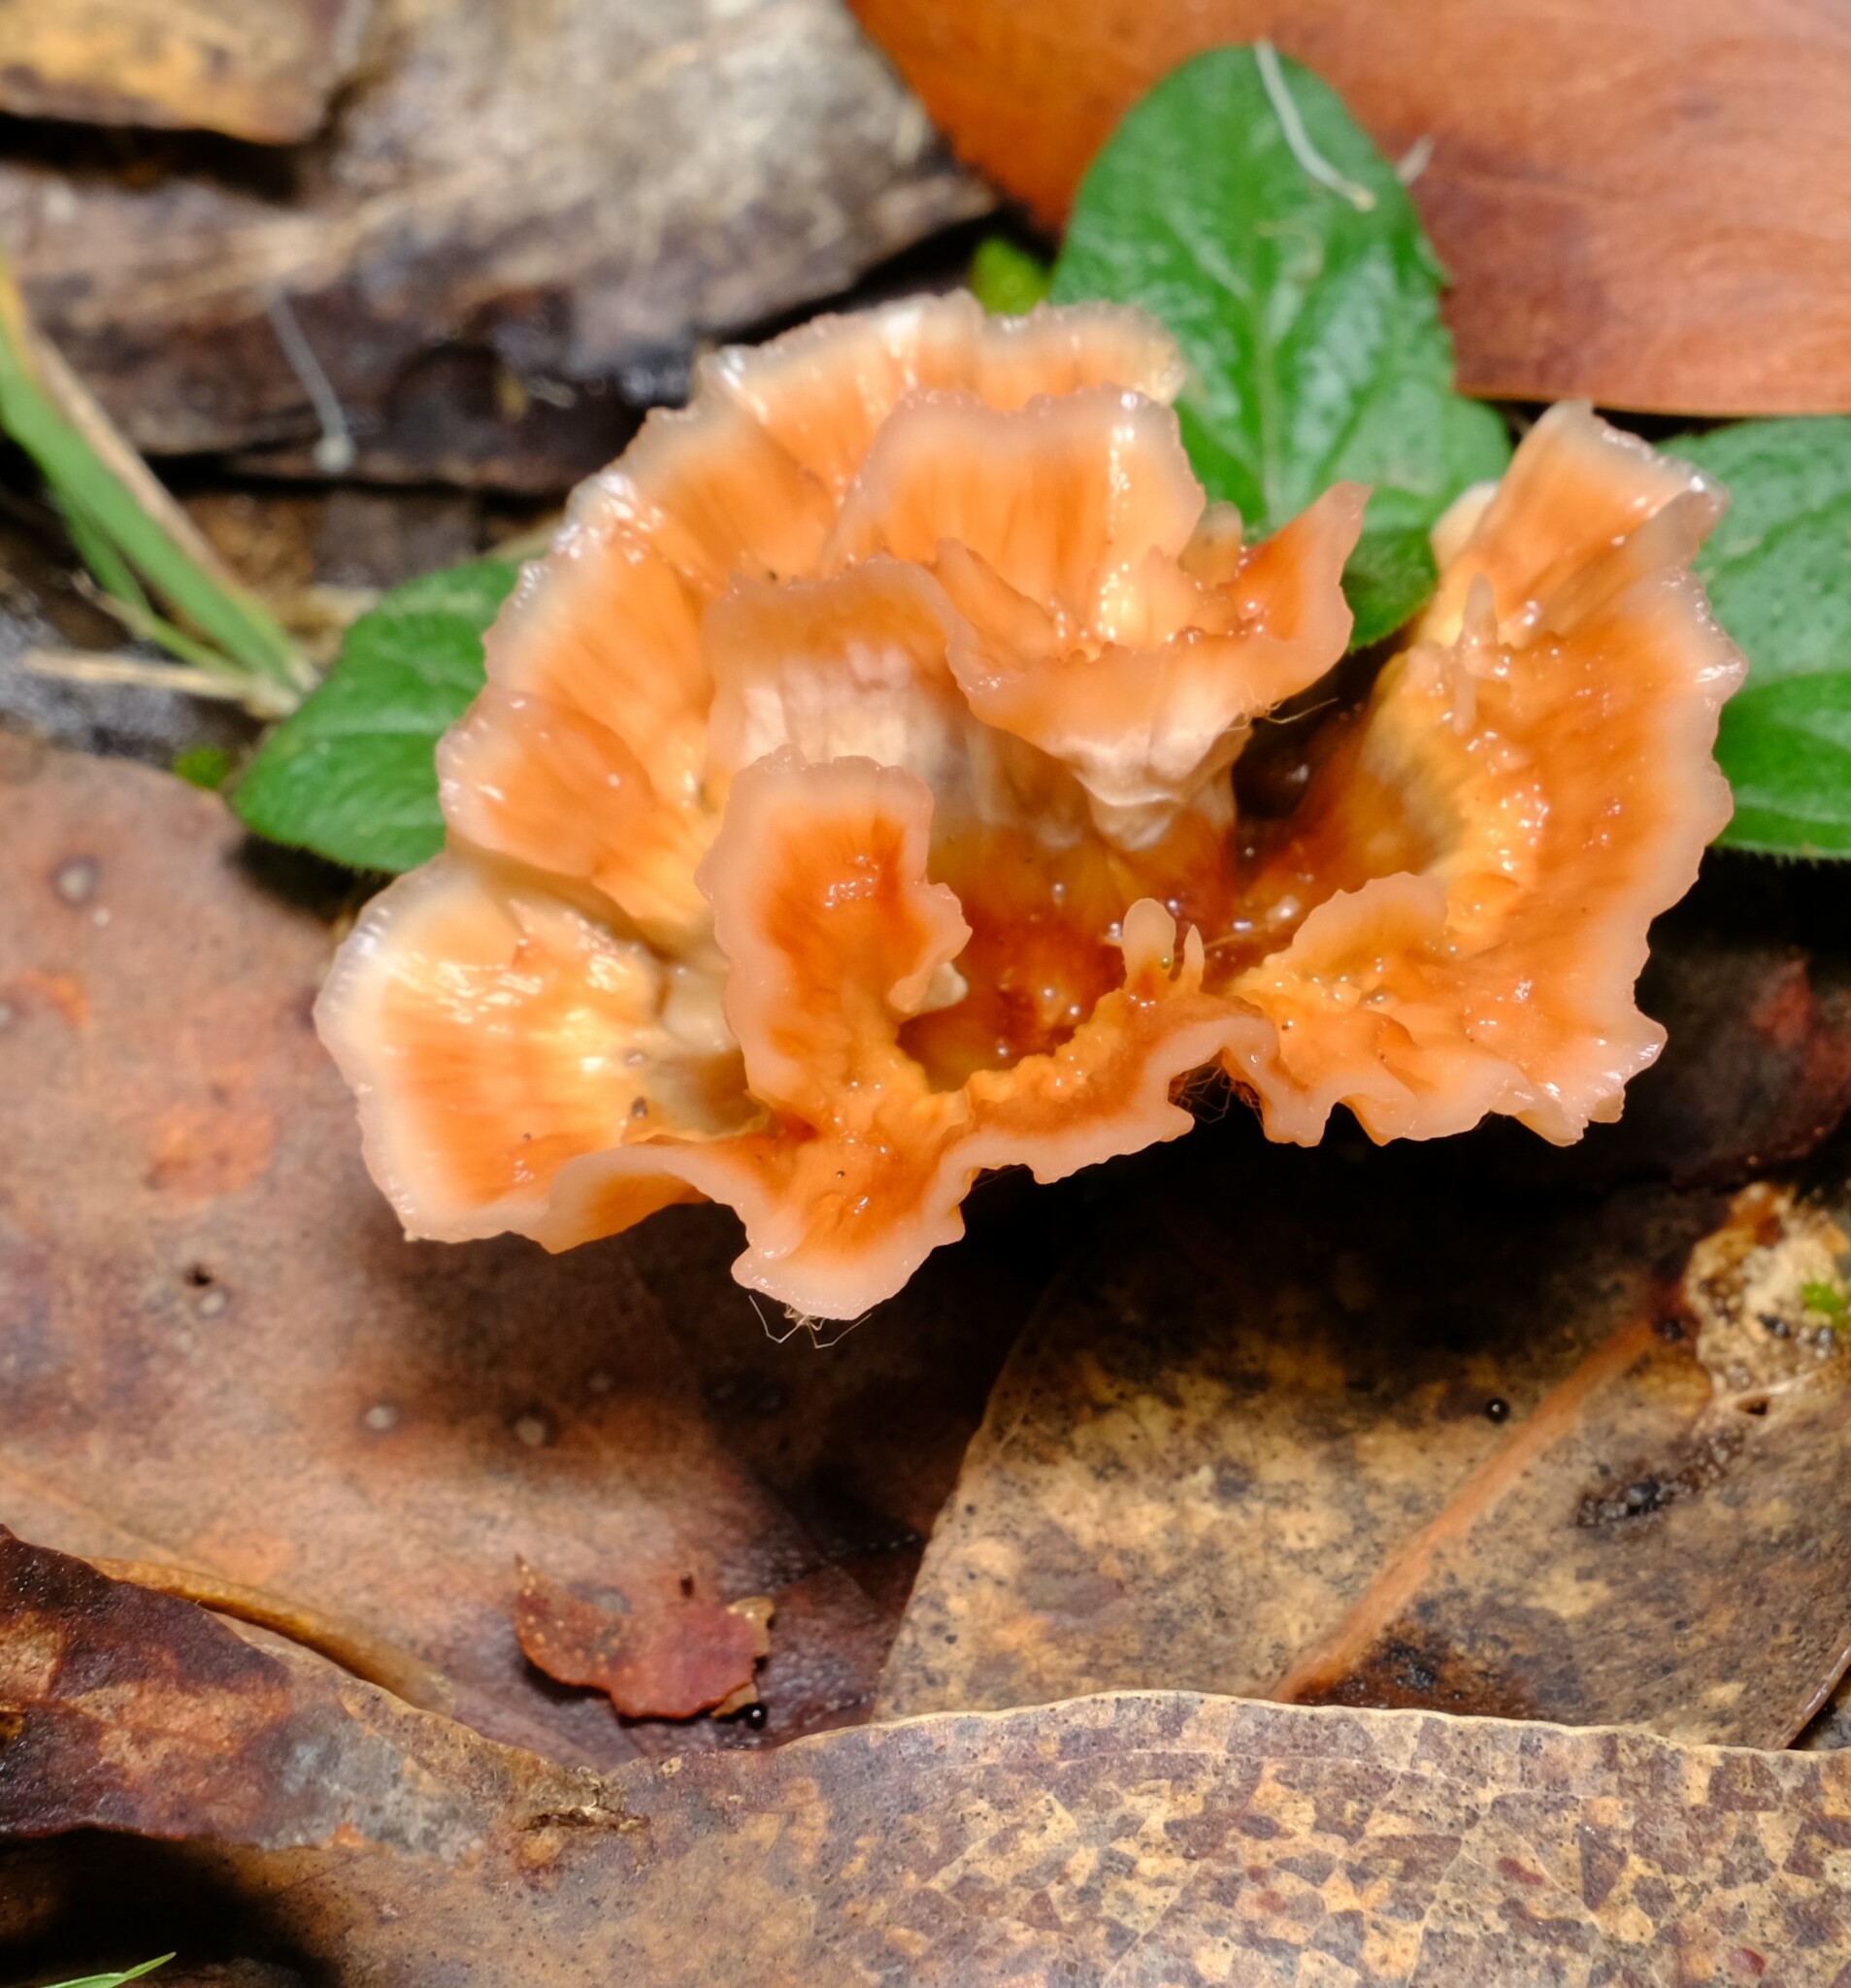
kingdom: Fungi
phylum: Basidiomycota
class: Agaricomycetes
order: Polyporales
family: Podoscyphaceae
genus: Podoscypha
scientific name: Podoscypha petalodes
